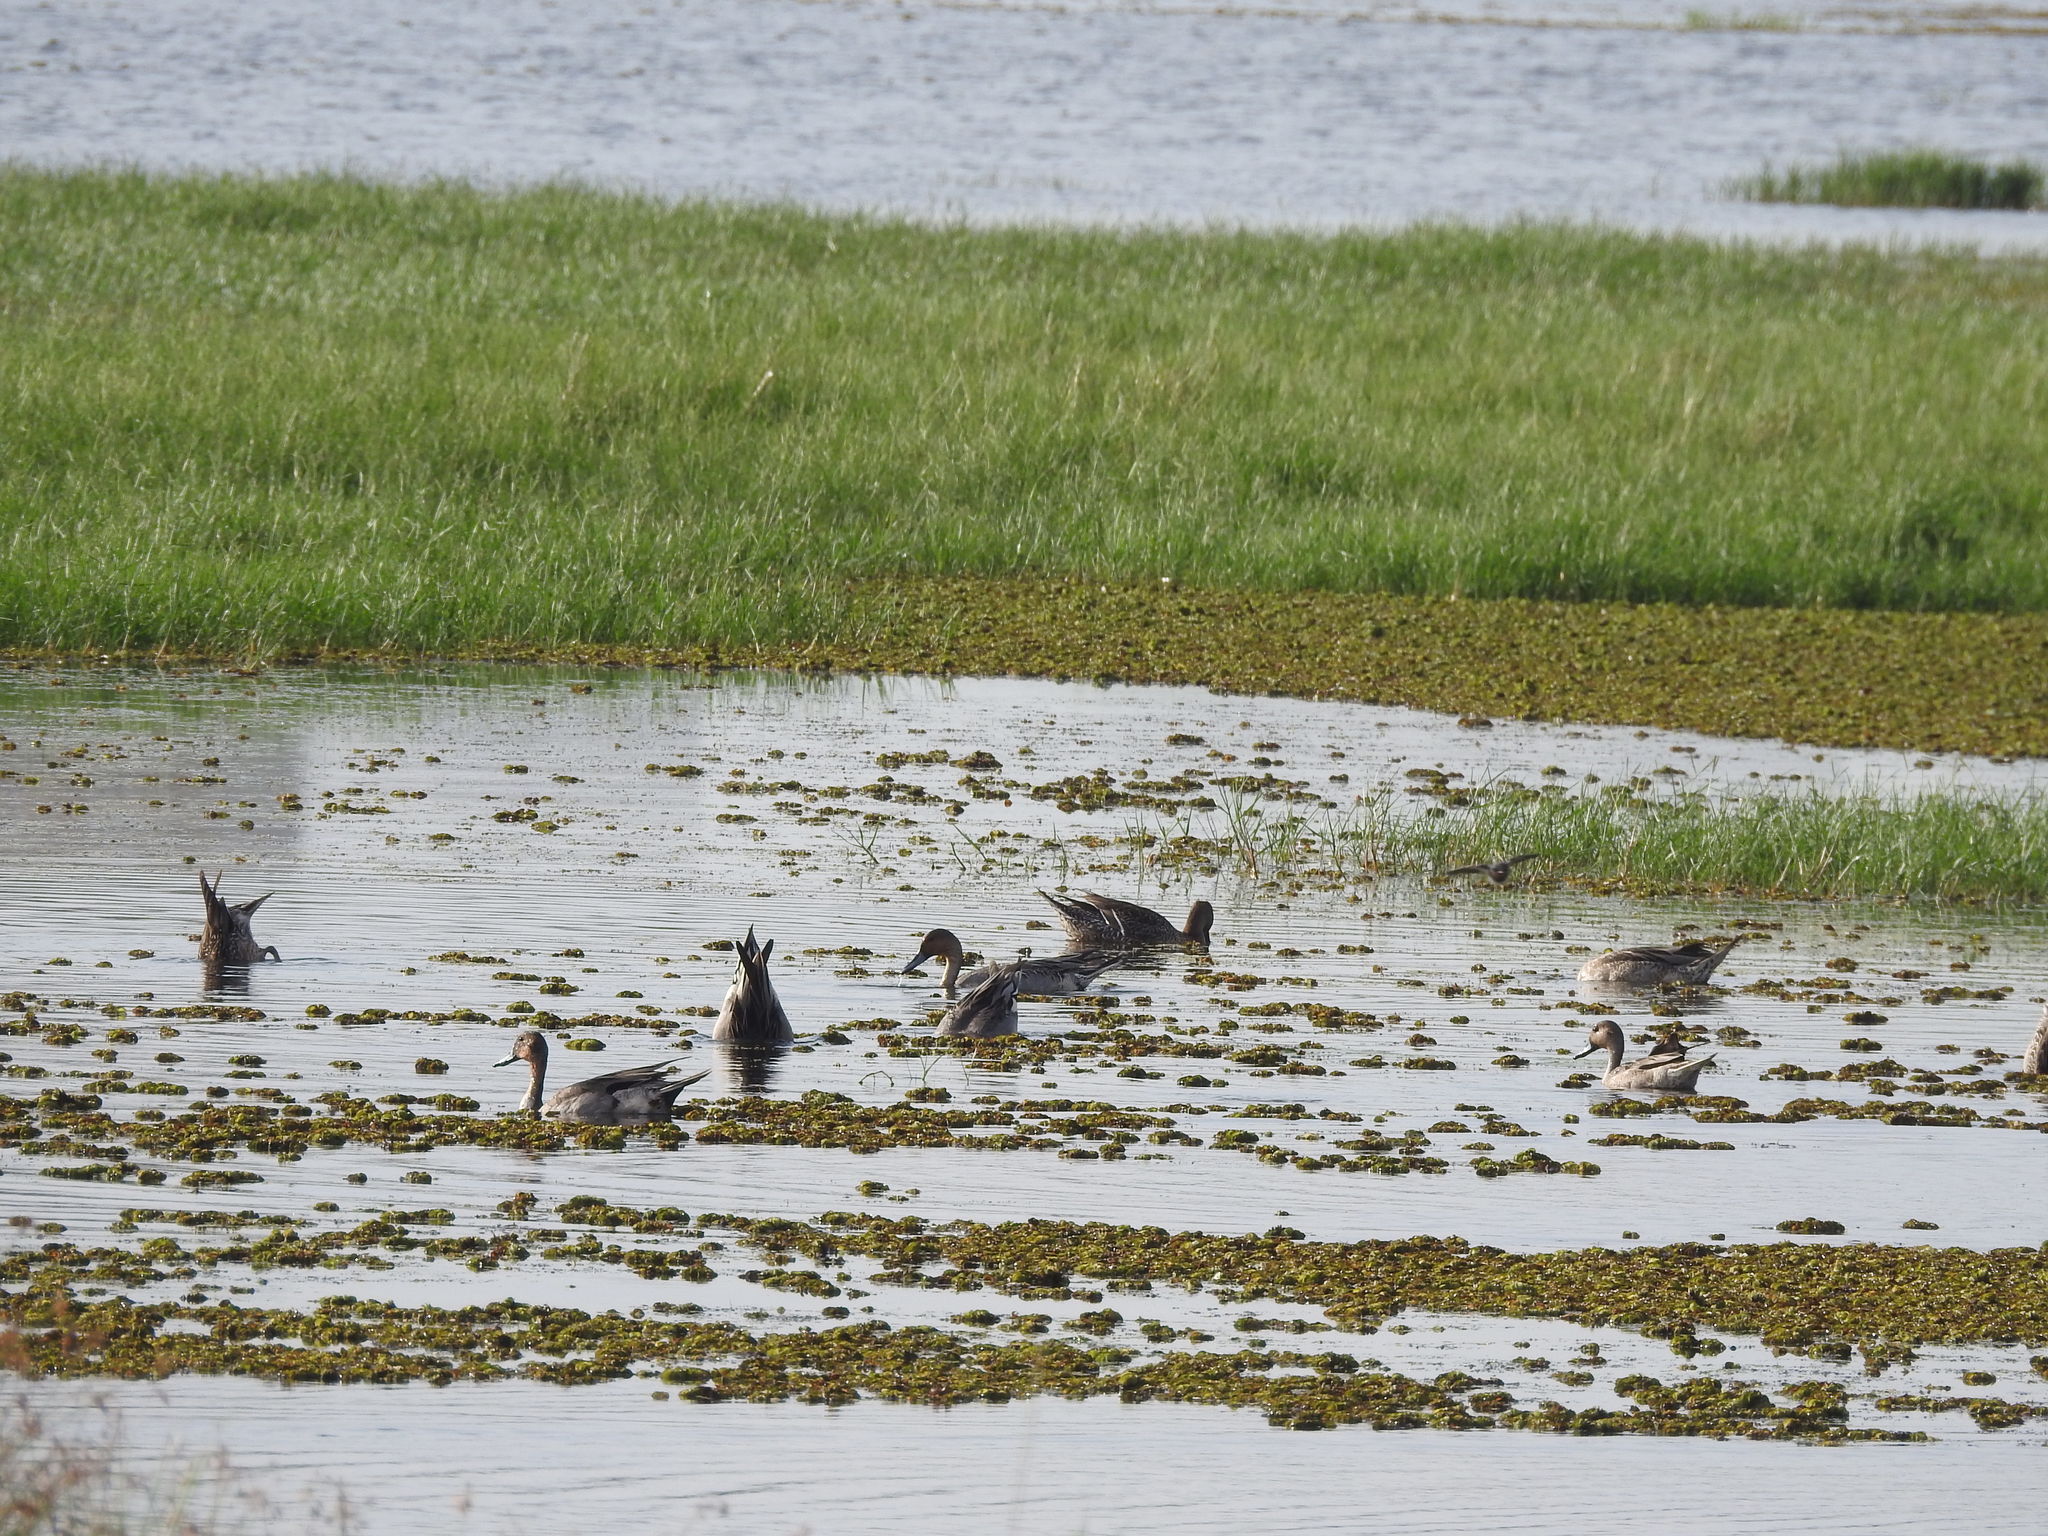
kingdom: Animalia
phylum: Chordata
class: Aves
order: Anseriformes
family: Anatidae
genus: Anas
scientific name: Anas acuta
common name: Northern pintail
